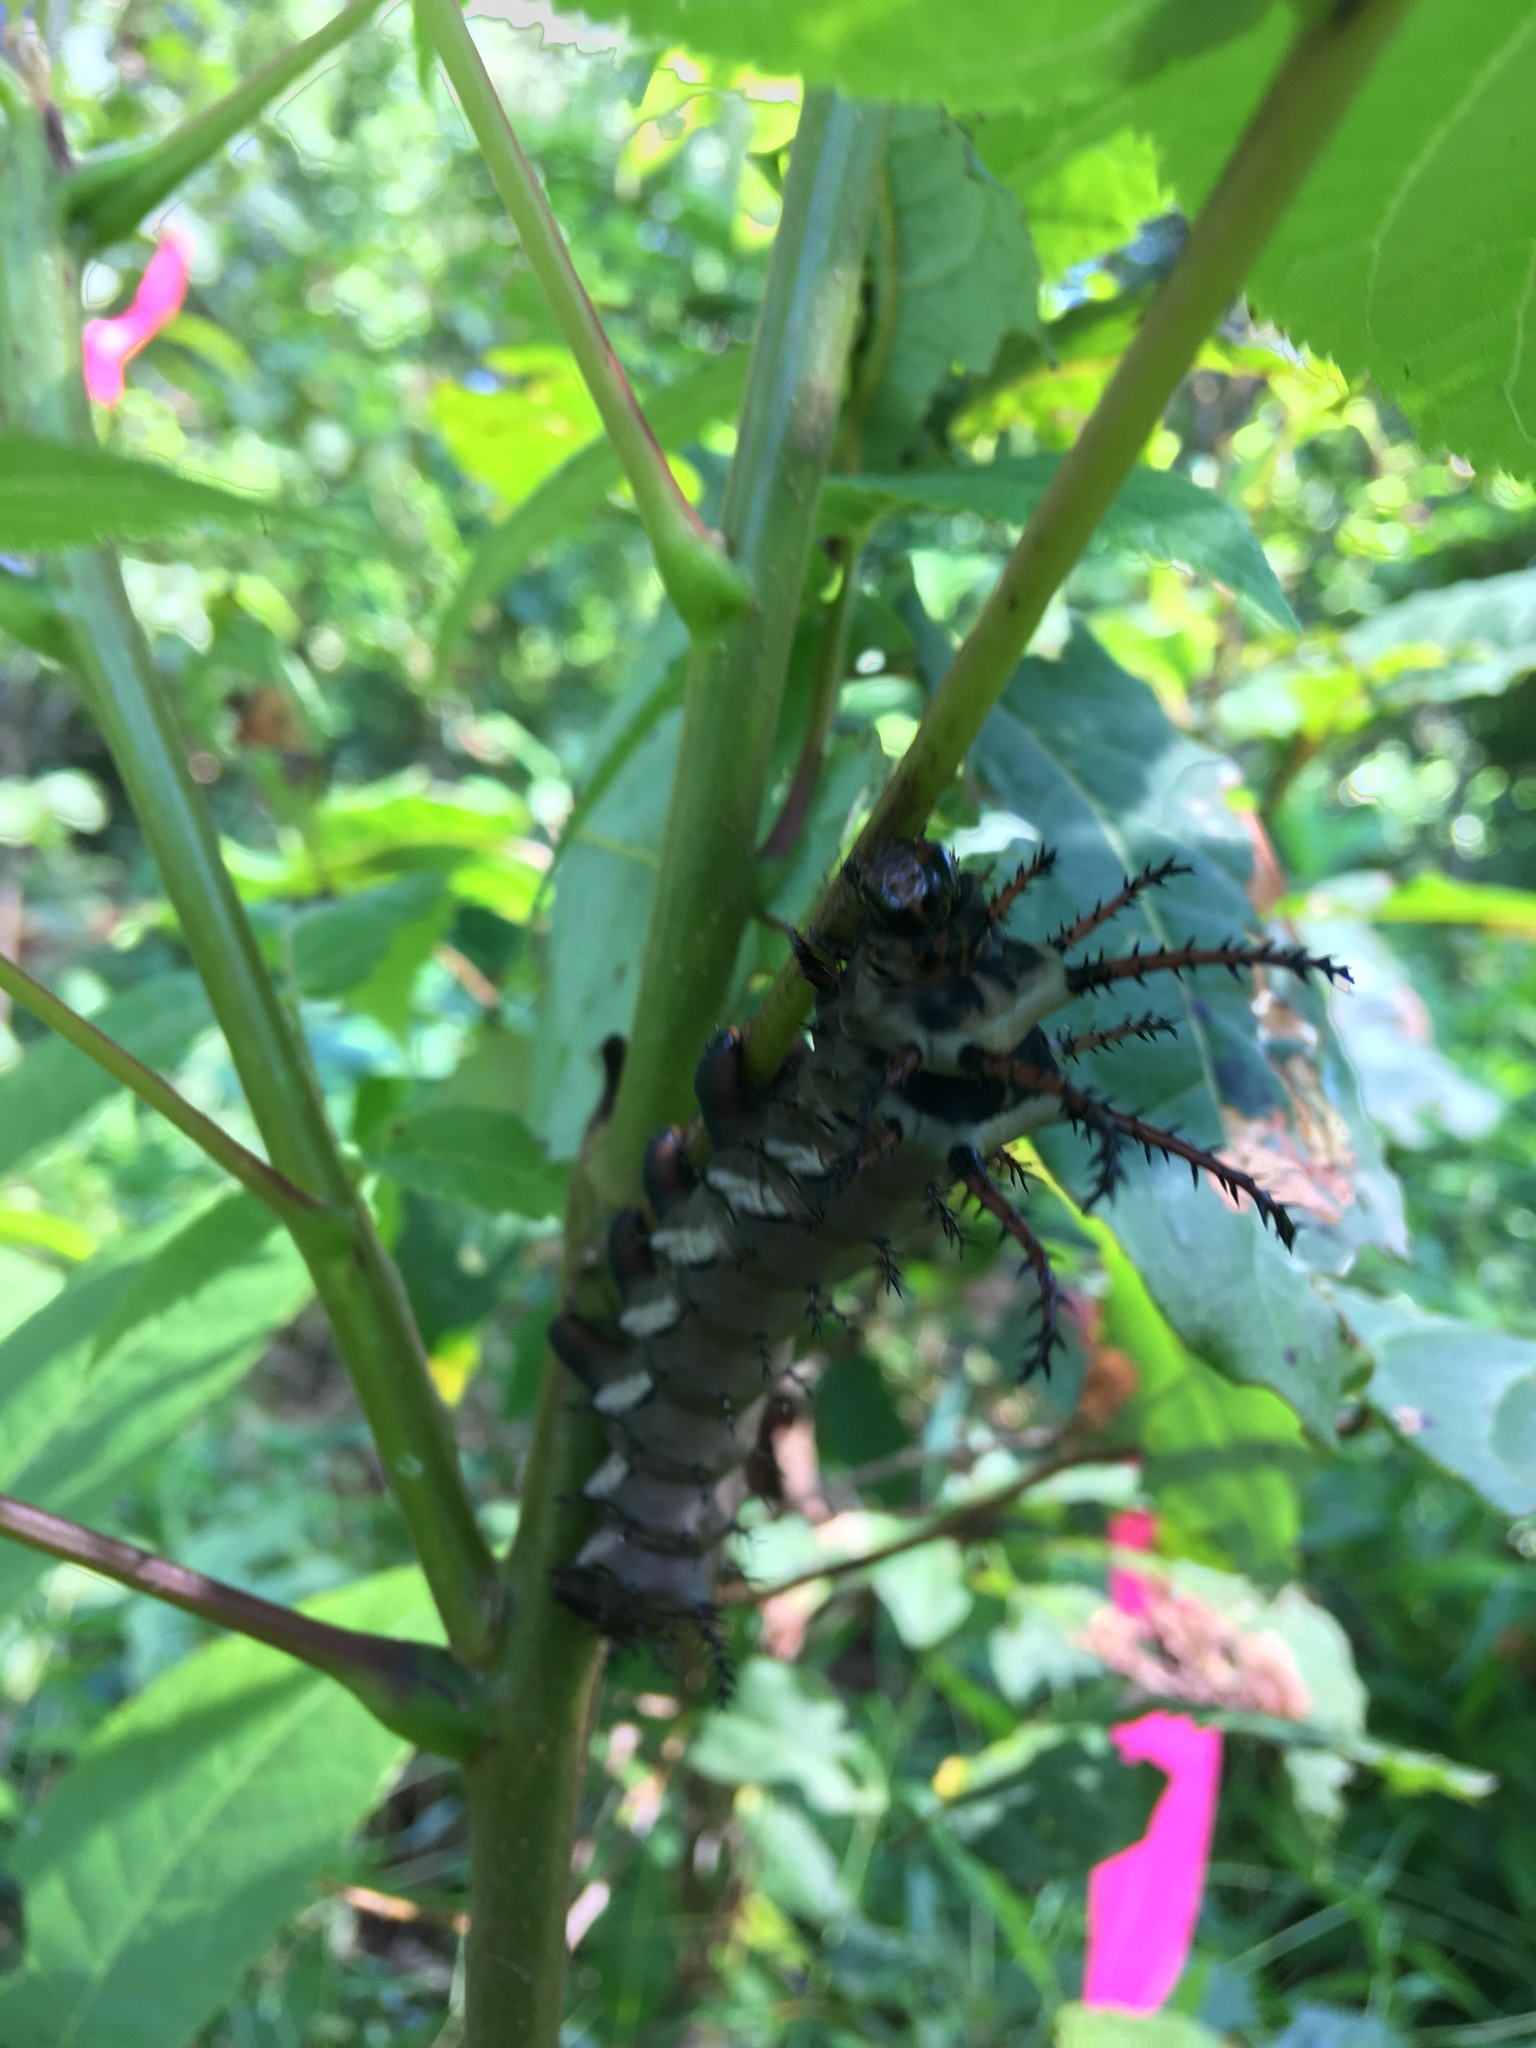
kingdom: Animalia
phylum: Arthropoda
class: Insecta
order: Lepidoptera
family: Saturniidae
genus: Citheronia
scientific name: Citheronia regalis
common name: Hickory horned devil
